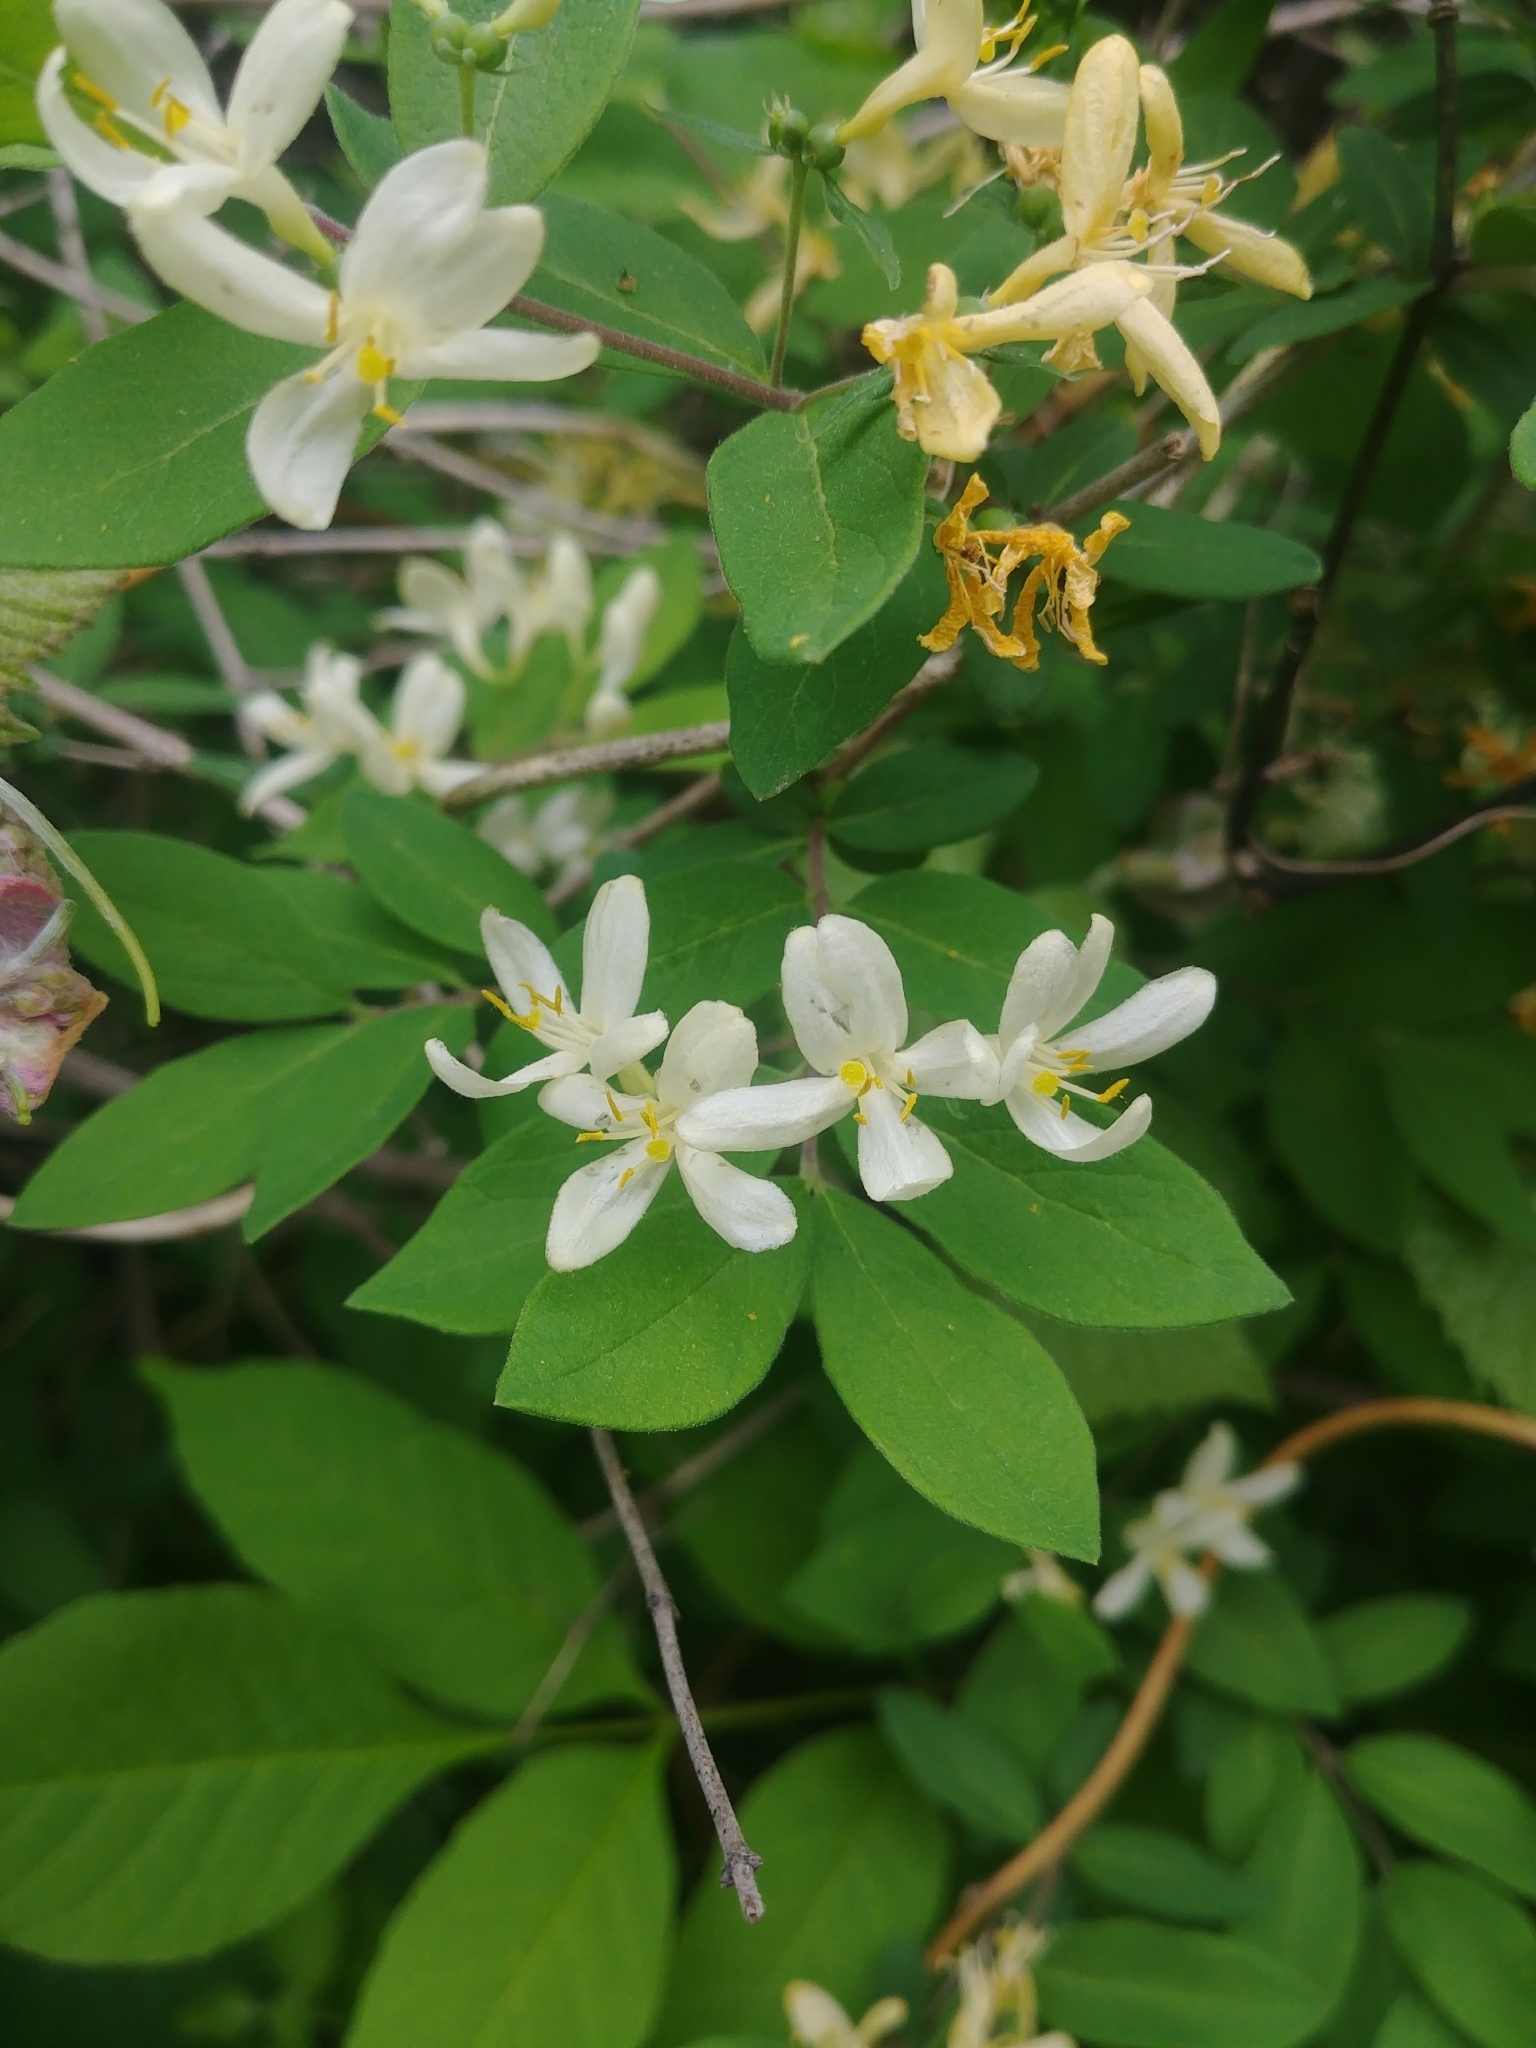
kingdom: Plantae
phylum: Tracheophyta
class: Magnoliopsida
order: Dipsacales
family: Caprifoliaceae
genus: Lonicera
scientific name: Lonicera morrowii
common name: Morrow's honeysuckle
